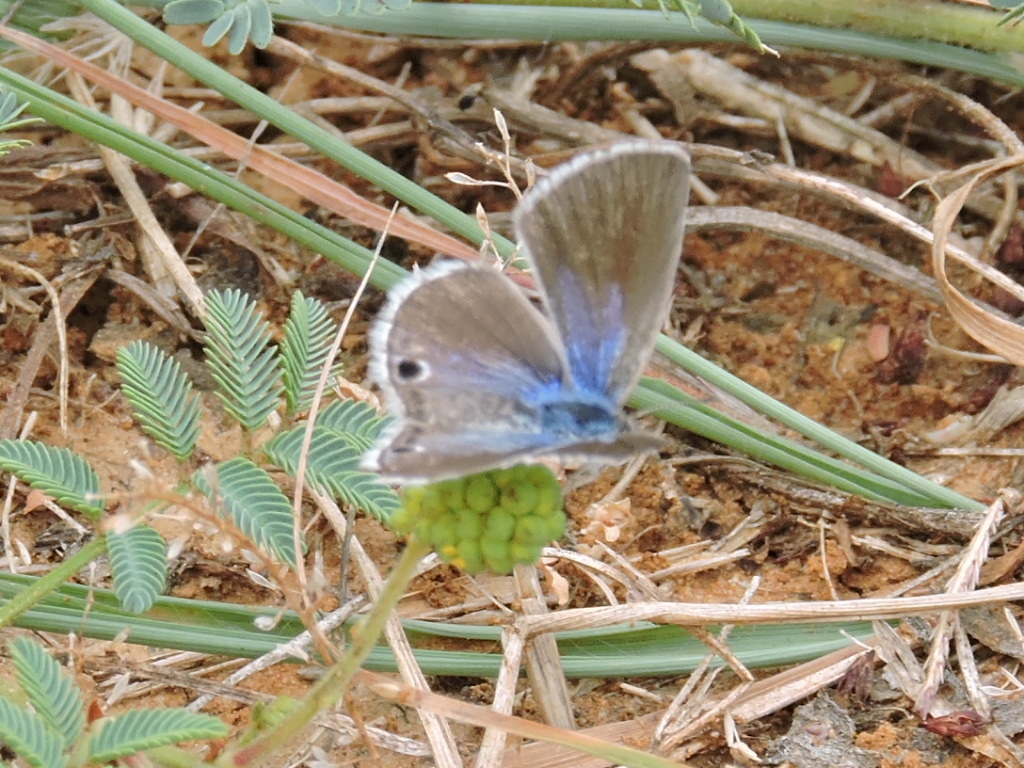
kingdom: Animalia
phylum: Arthropoda
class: Insecta
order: Lepidoptera
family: Lycaenidae
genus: Echinargus
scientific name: Echinargus isola
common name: Reakirt's blue
